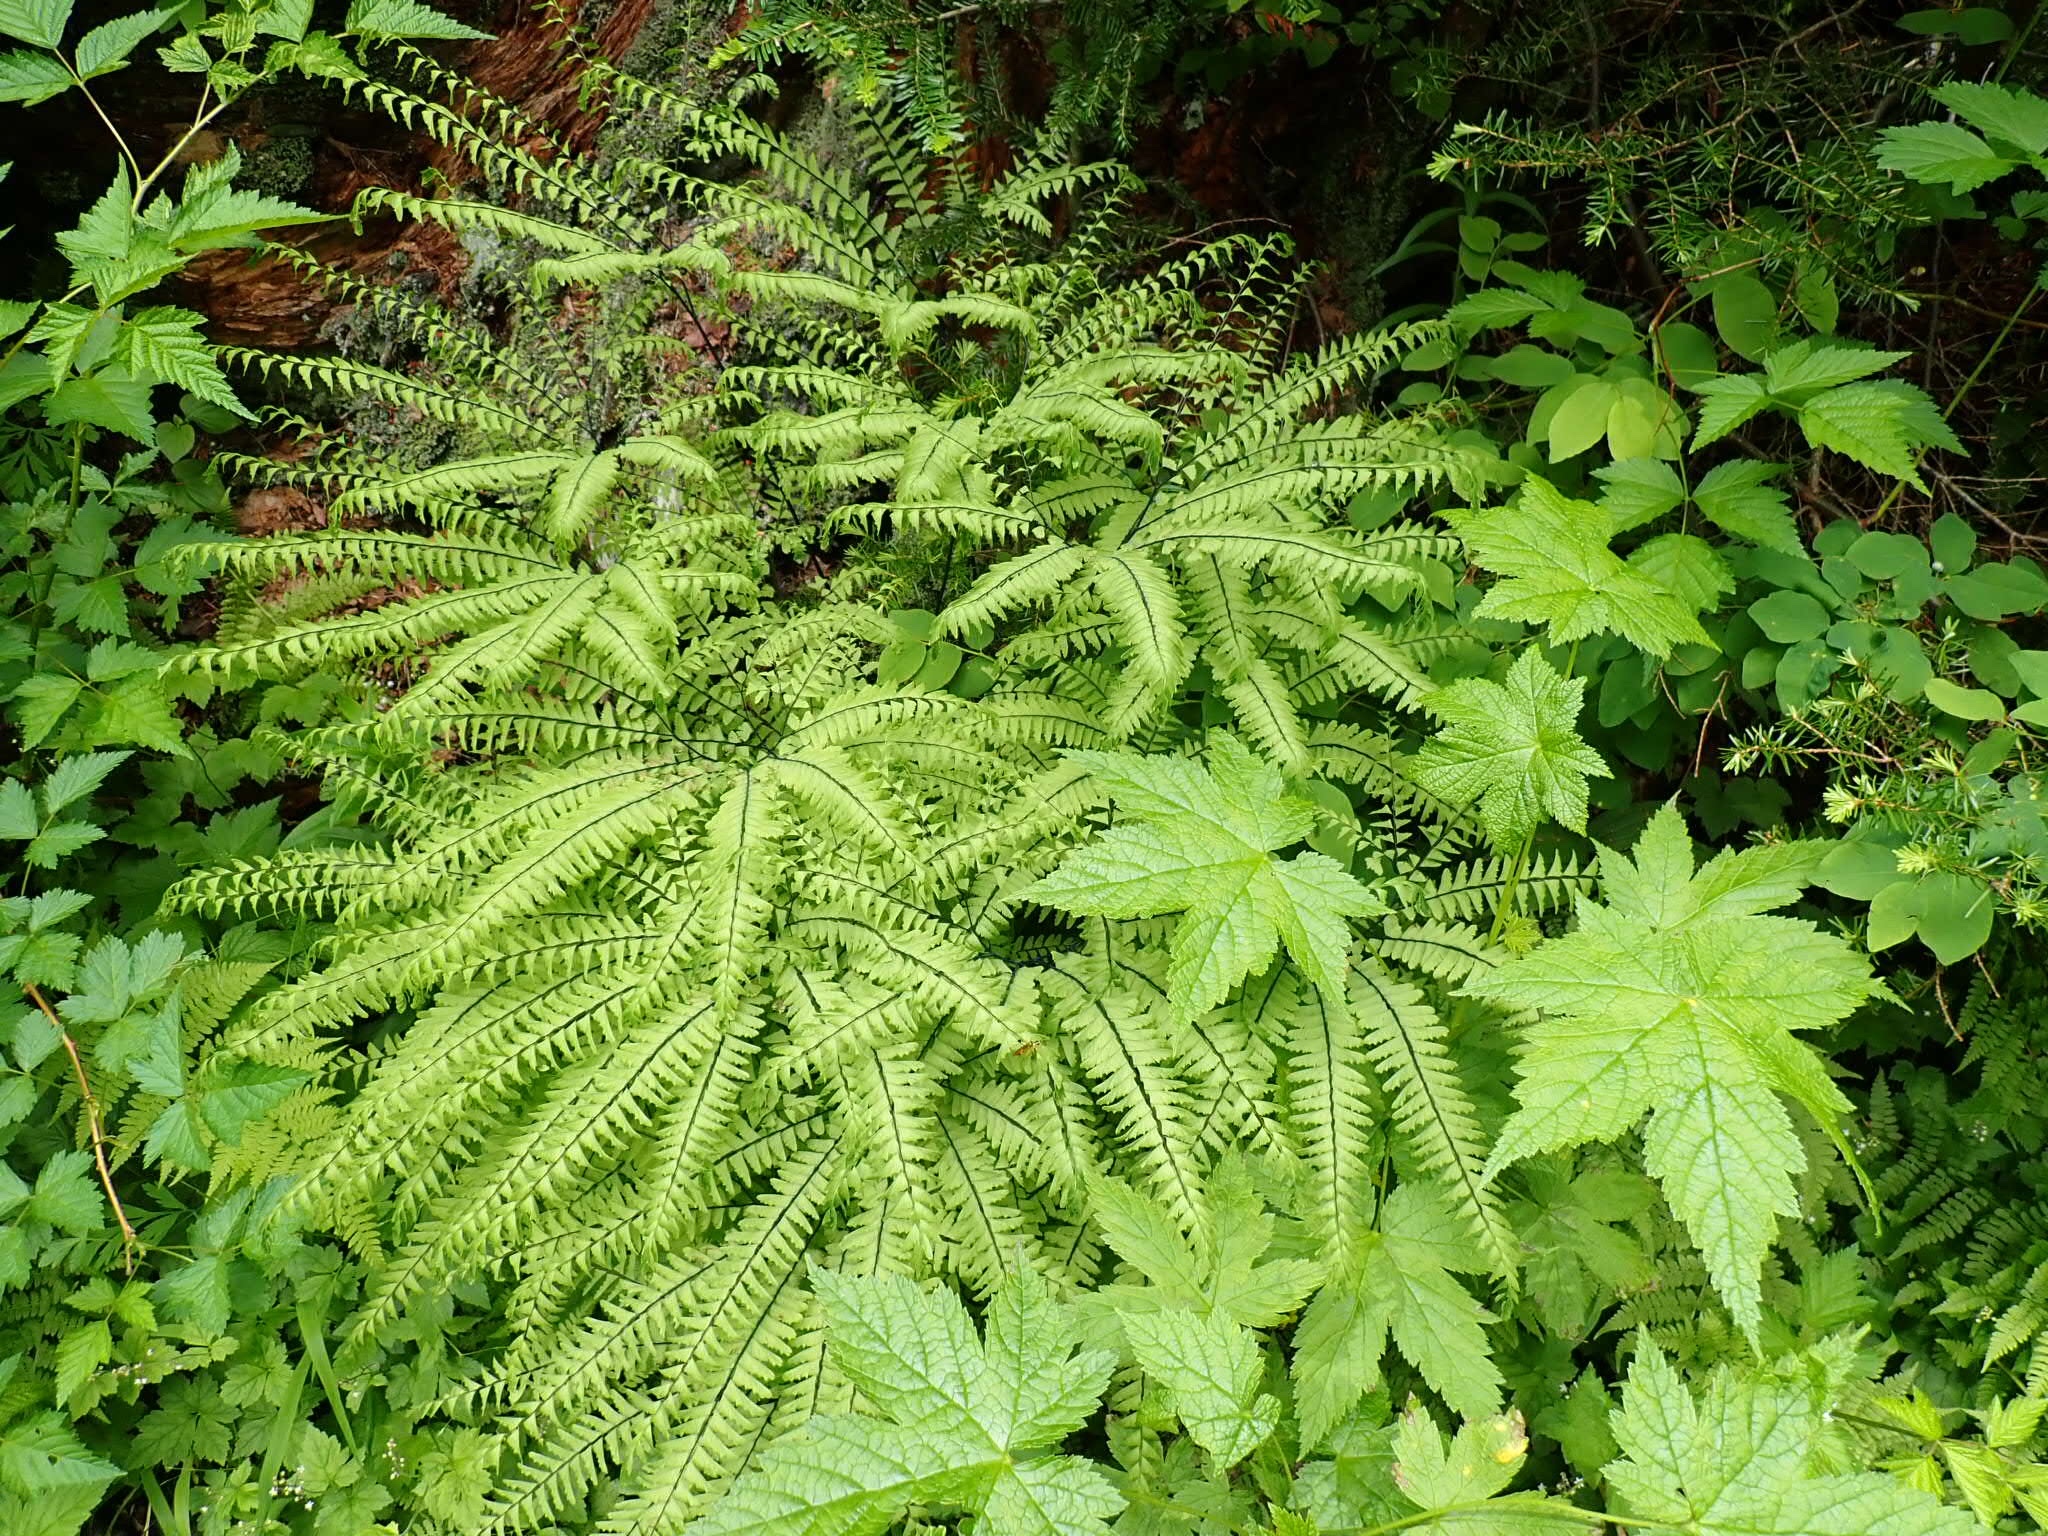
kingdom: Plantae
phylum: Tracheophyta
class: Polypodiopsida
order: Polypodiales
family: Pteridaceae
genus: Adiantum
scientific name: Adiantum aleuticum
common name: Aleutian maidenhair fern
